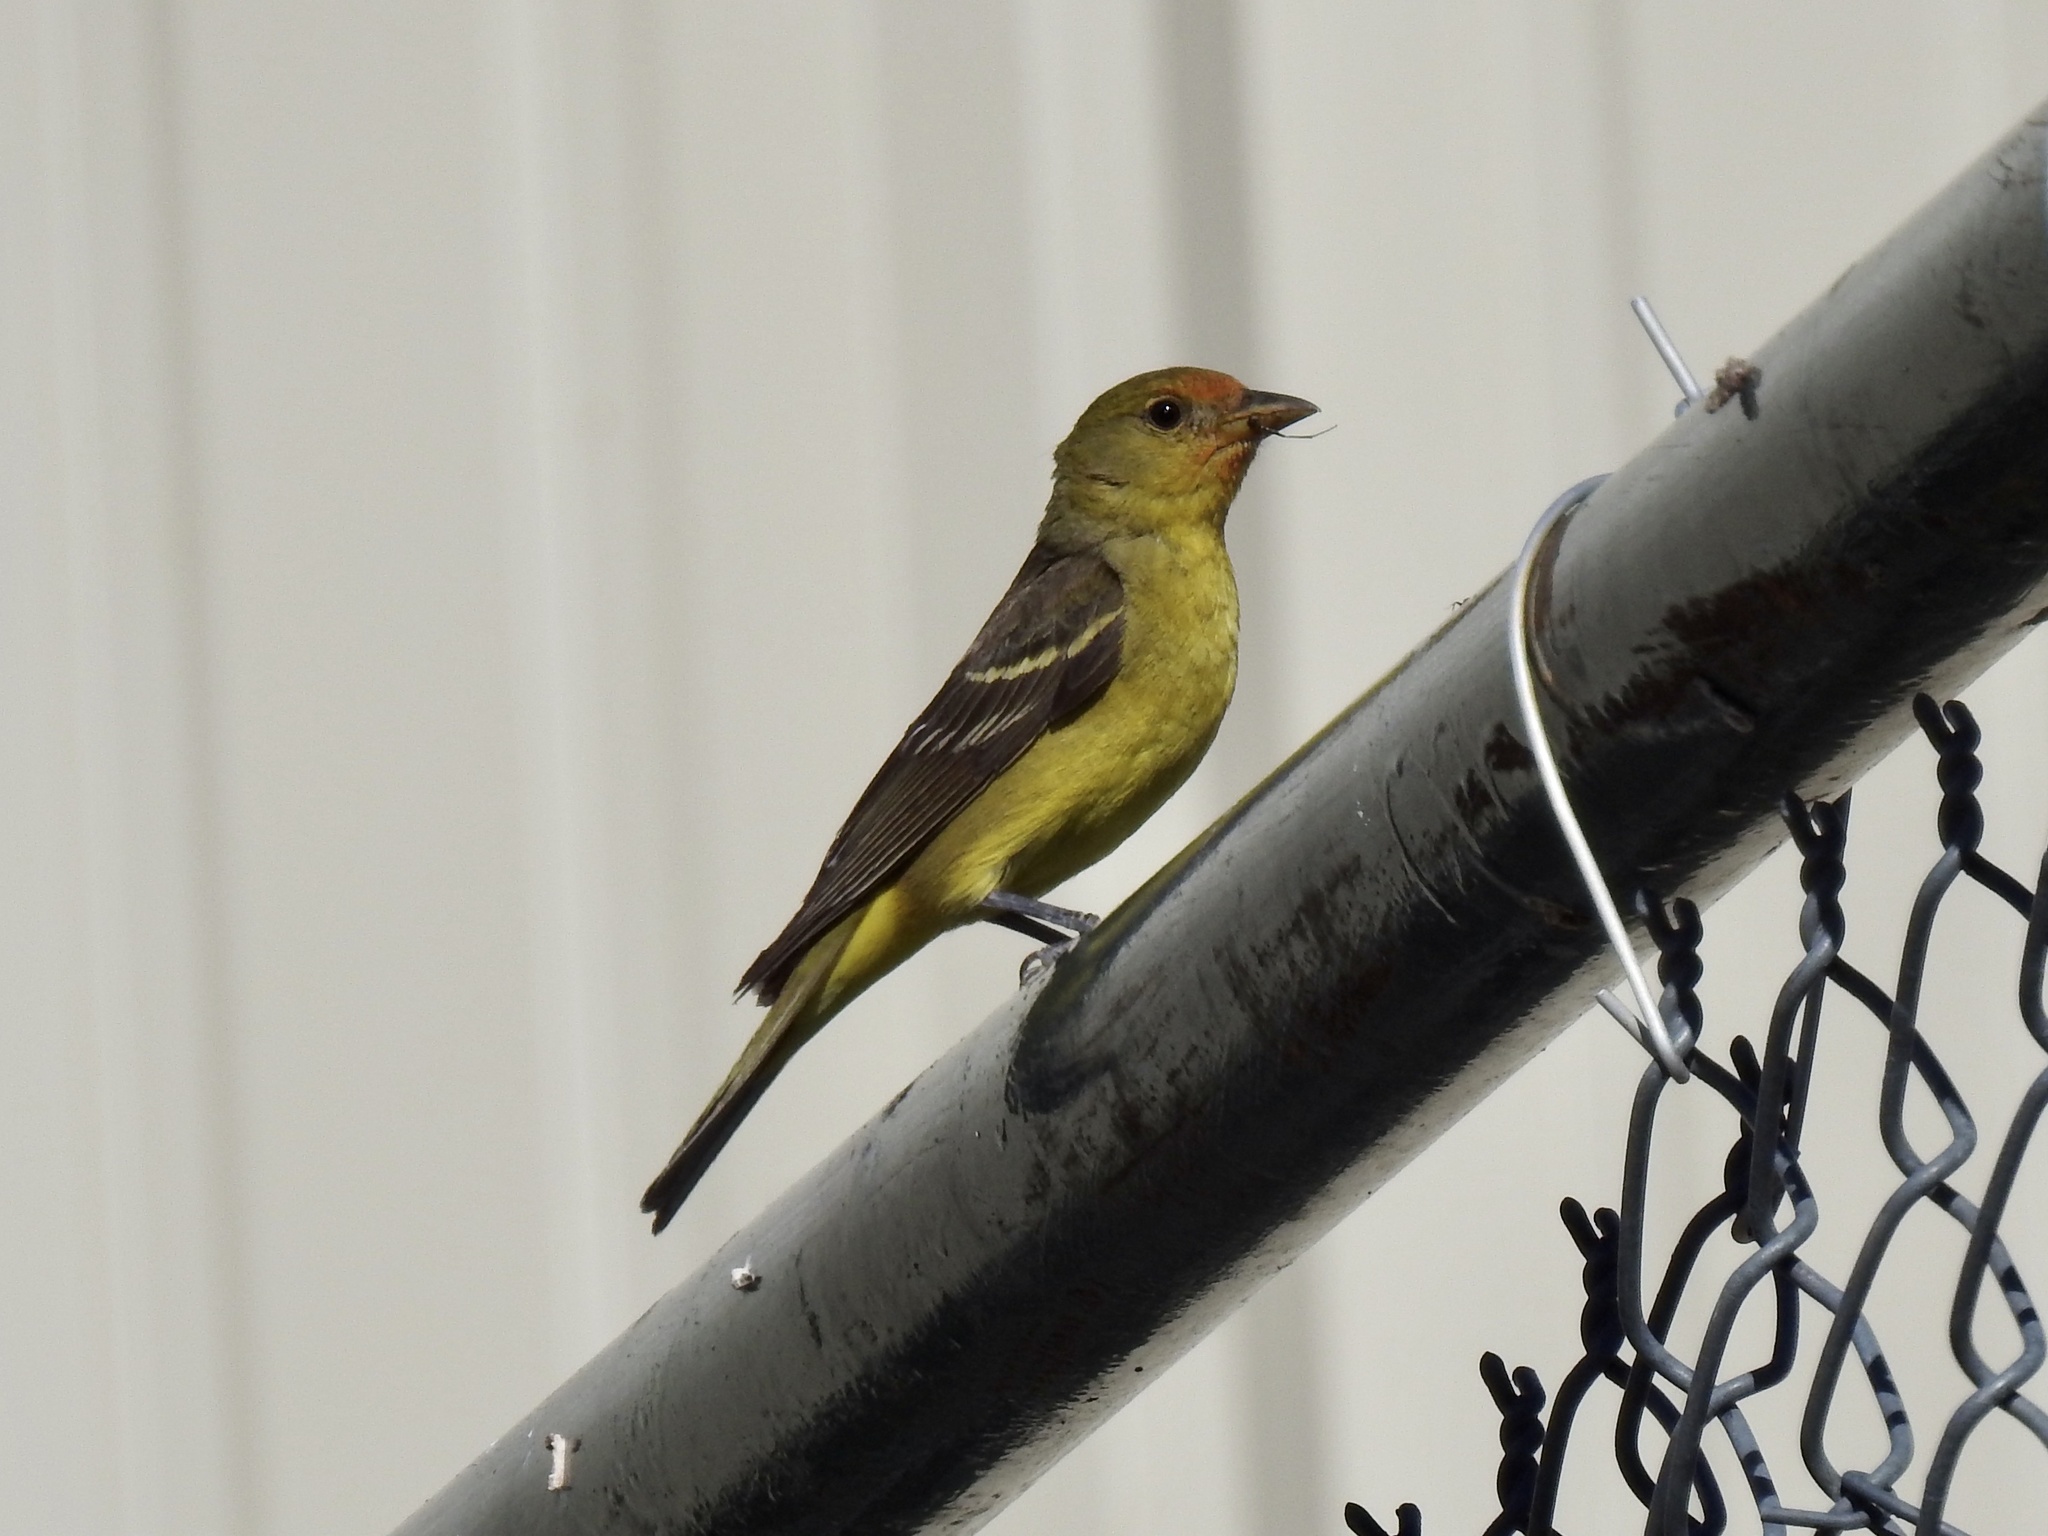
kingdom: Animalia
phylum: Chordata
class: Aves
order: Passeriformes
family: Cardinalidae
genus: Piranga
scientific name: Piranga ludoviciana
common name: Western tanager
